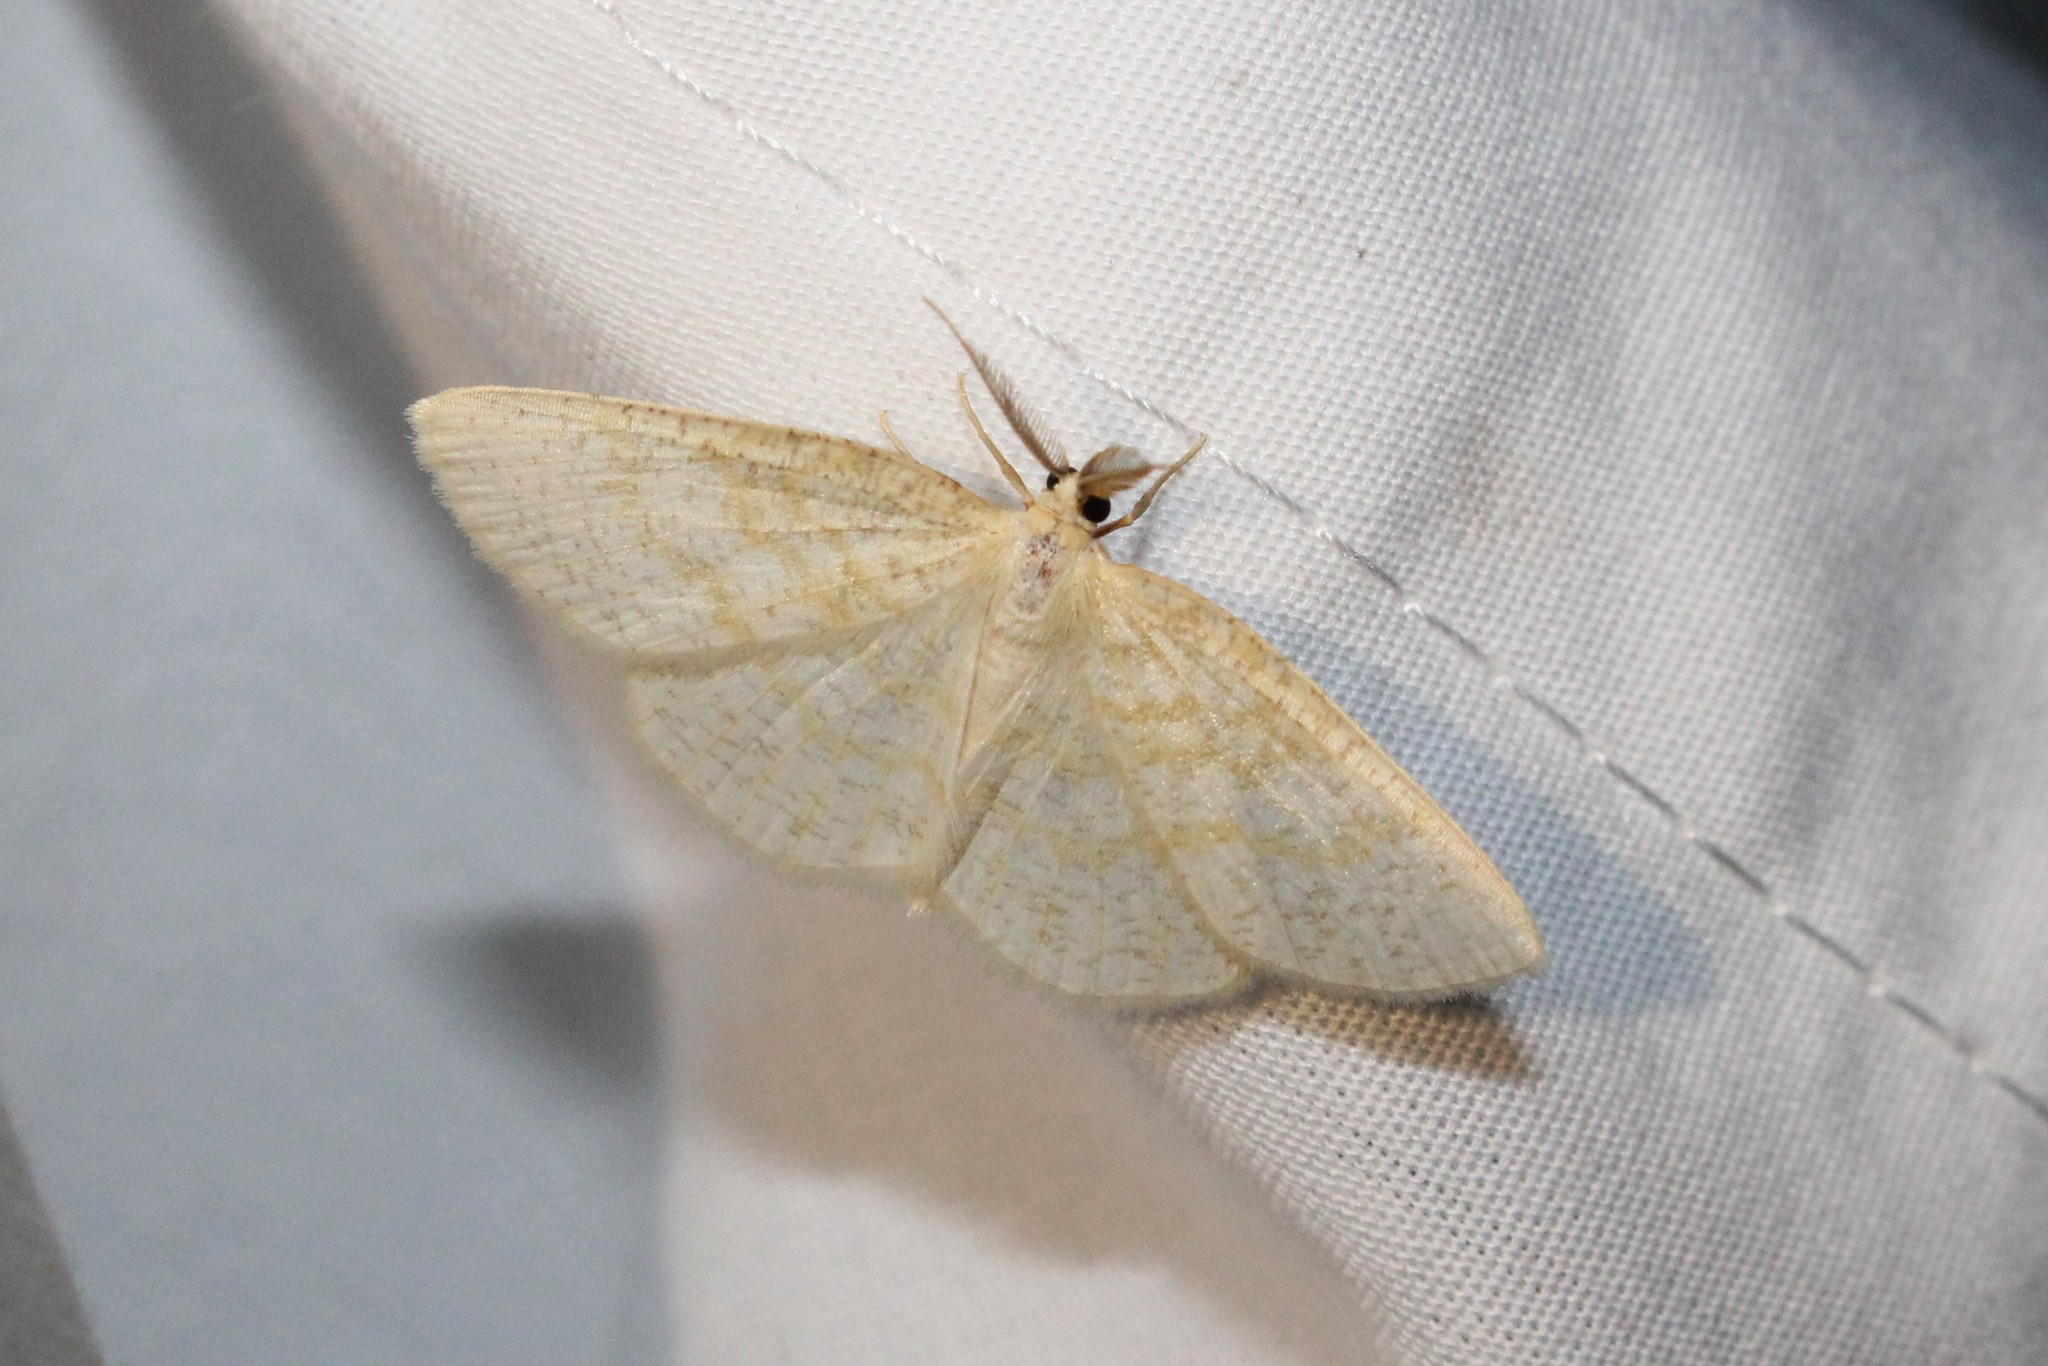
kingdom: Animalia
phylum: Arthropoda
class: Insecta
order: Lepidoptera
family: Geometridae
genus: Cabera
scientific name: Cabera erythemaria
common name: Yellow-dusted cream moth
